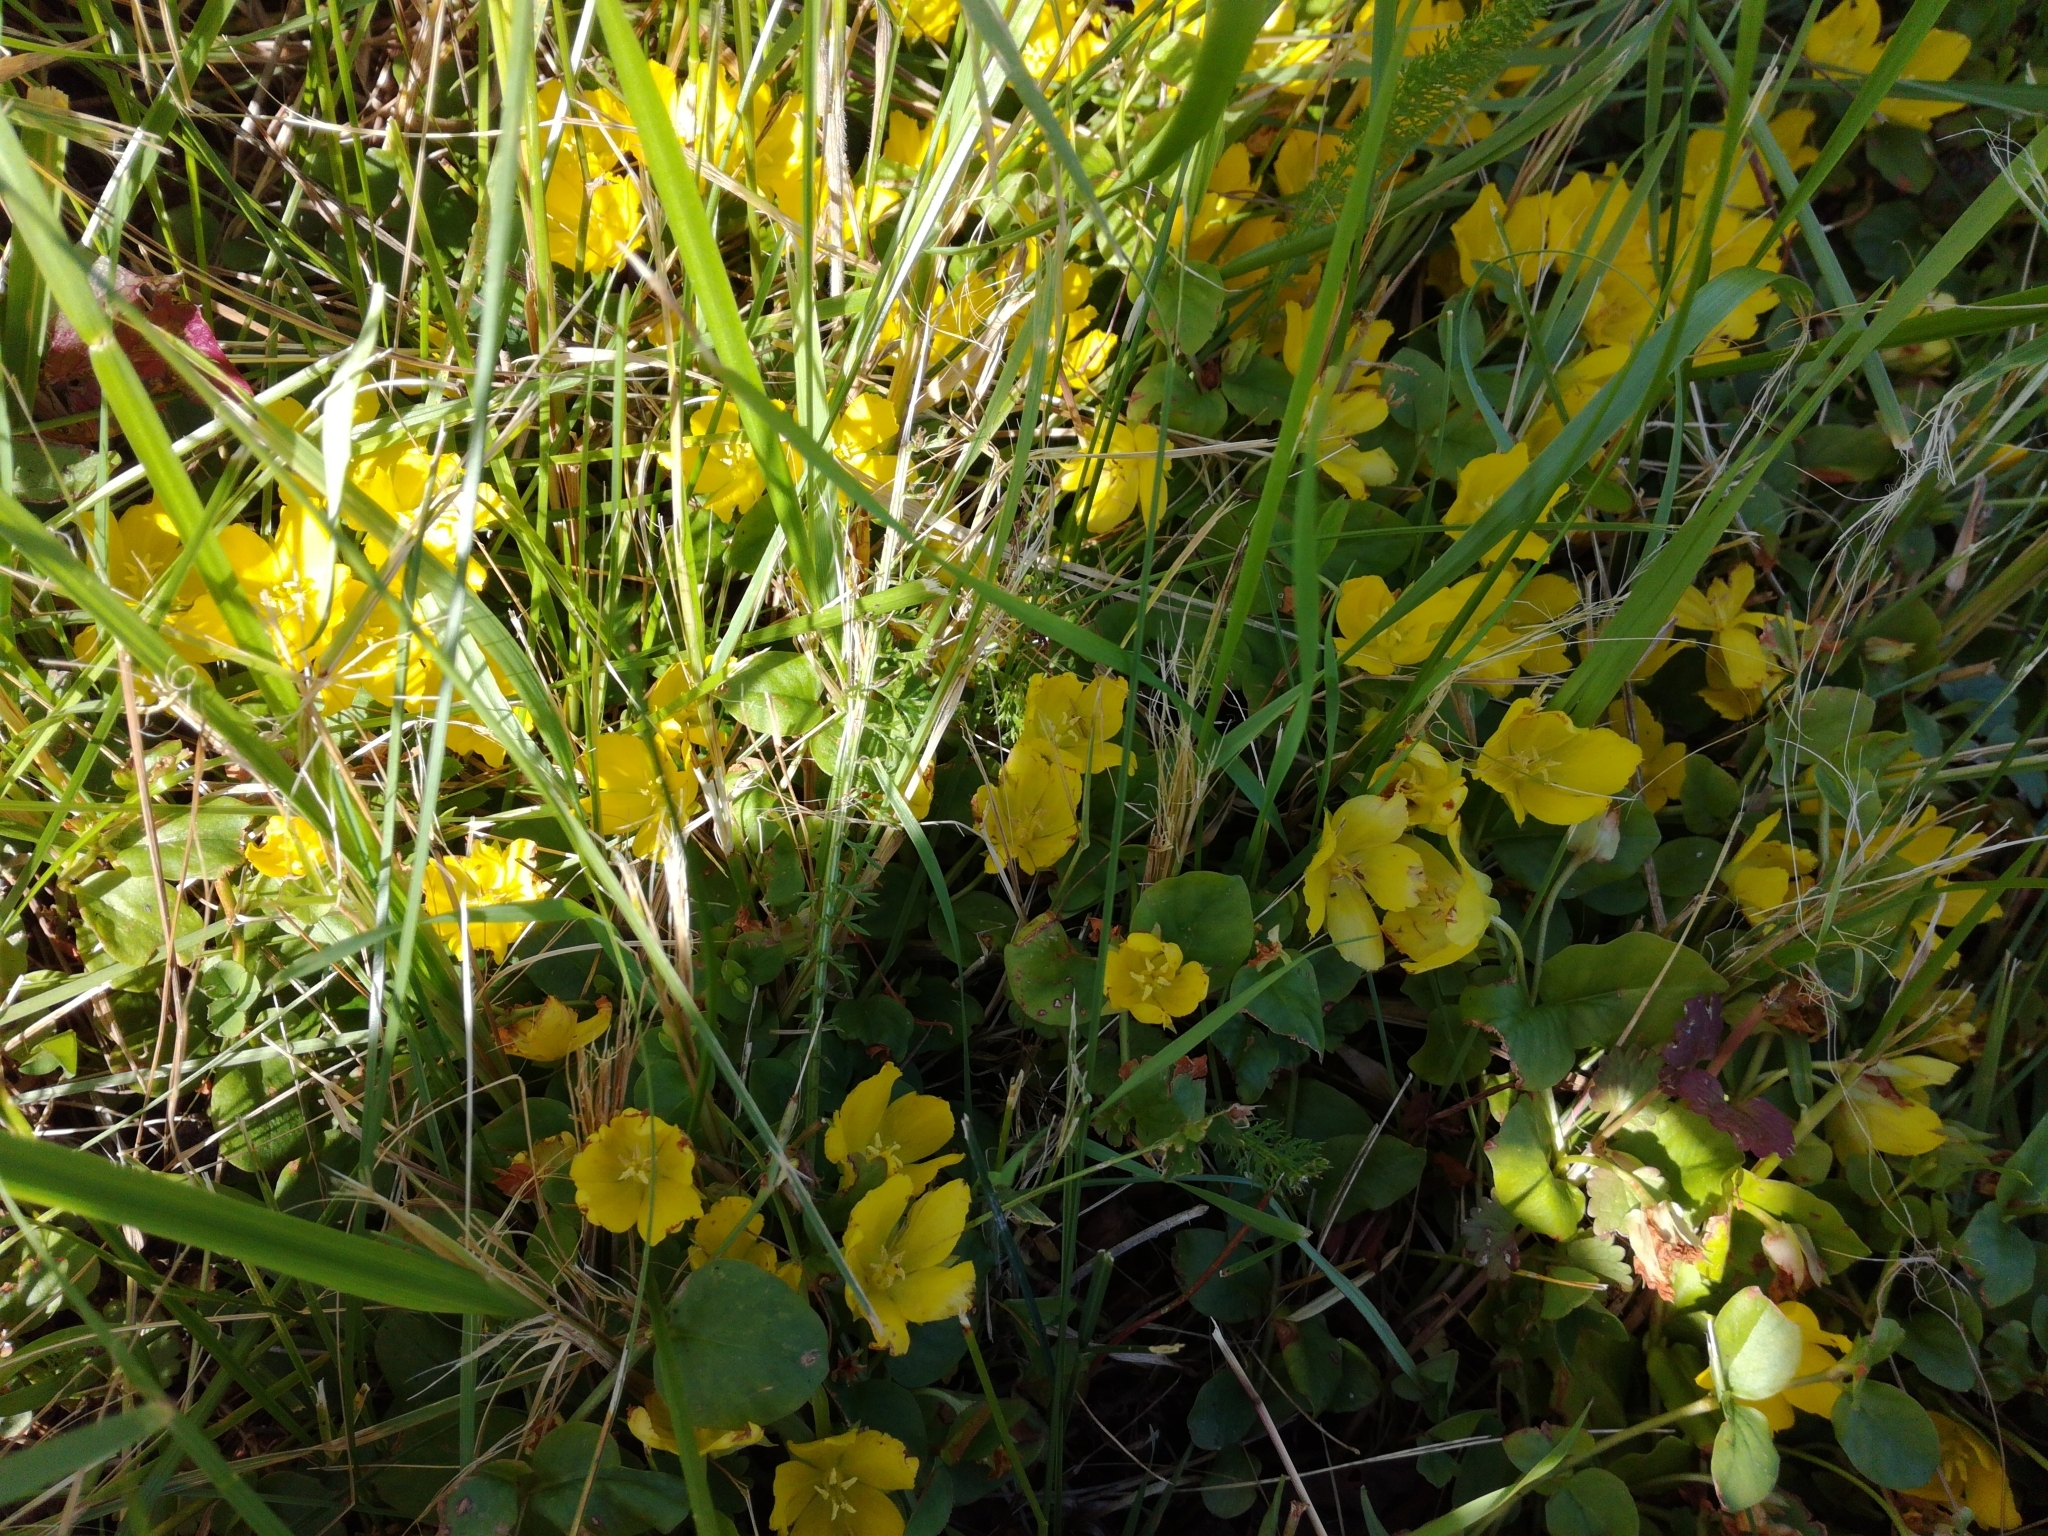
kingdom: Plantae
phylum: Tracheophyta
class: Magnoliopsida
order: Ericales
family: Primulaceae
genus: Lysimachia
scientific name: Lysimachia nummularia
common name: Moneywort
